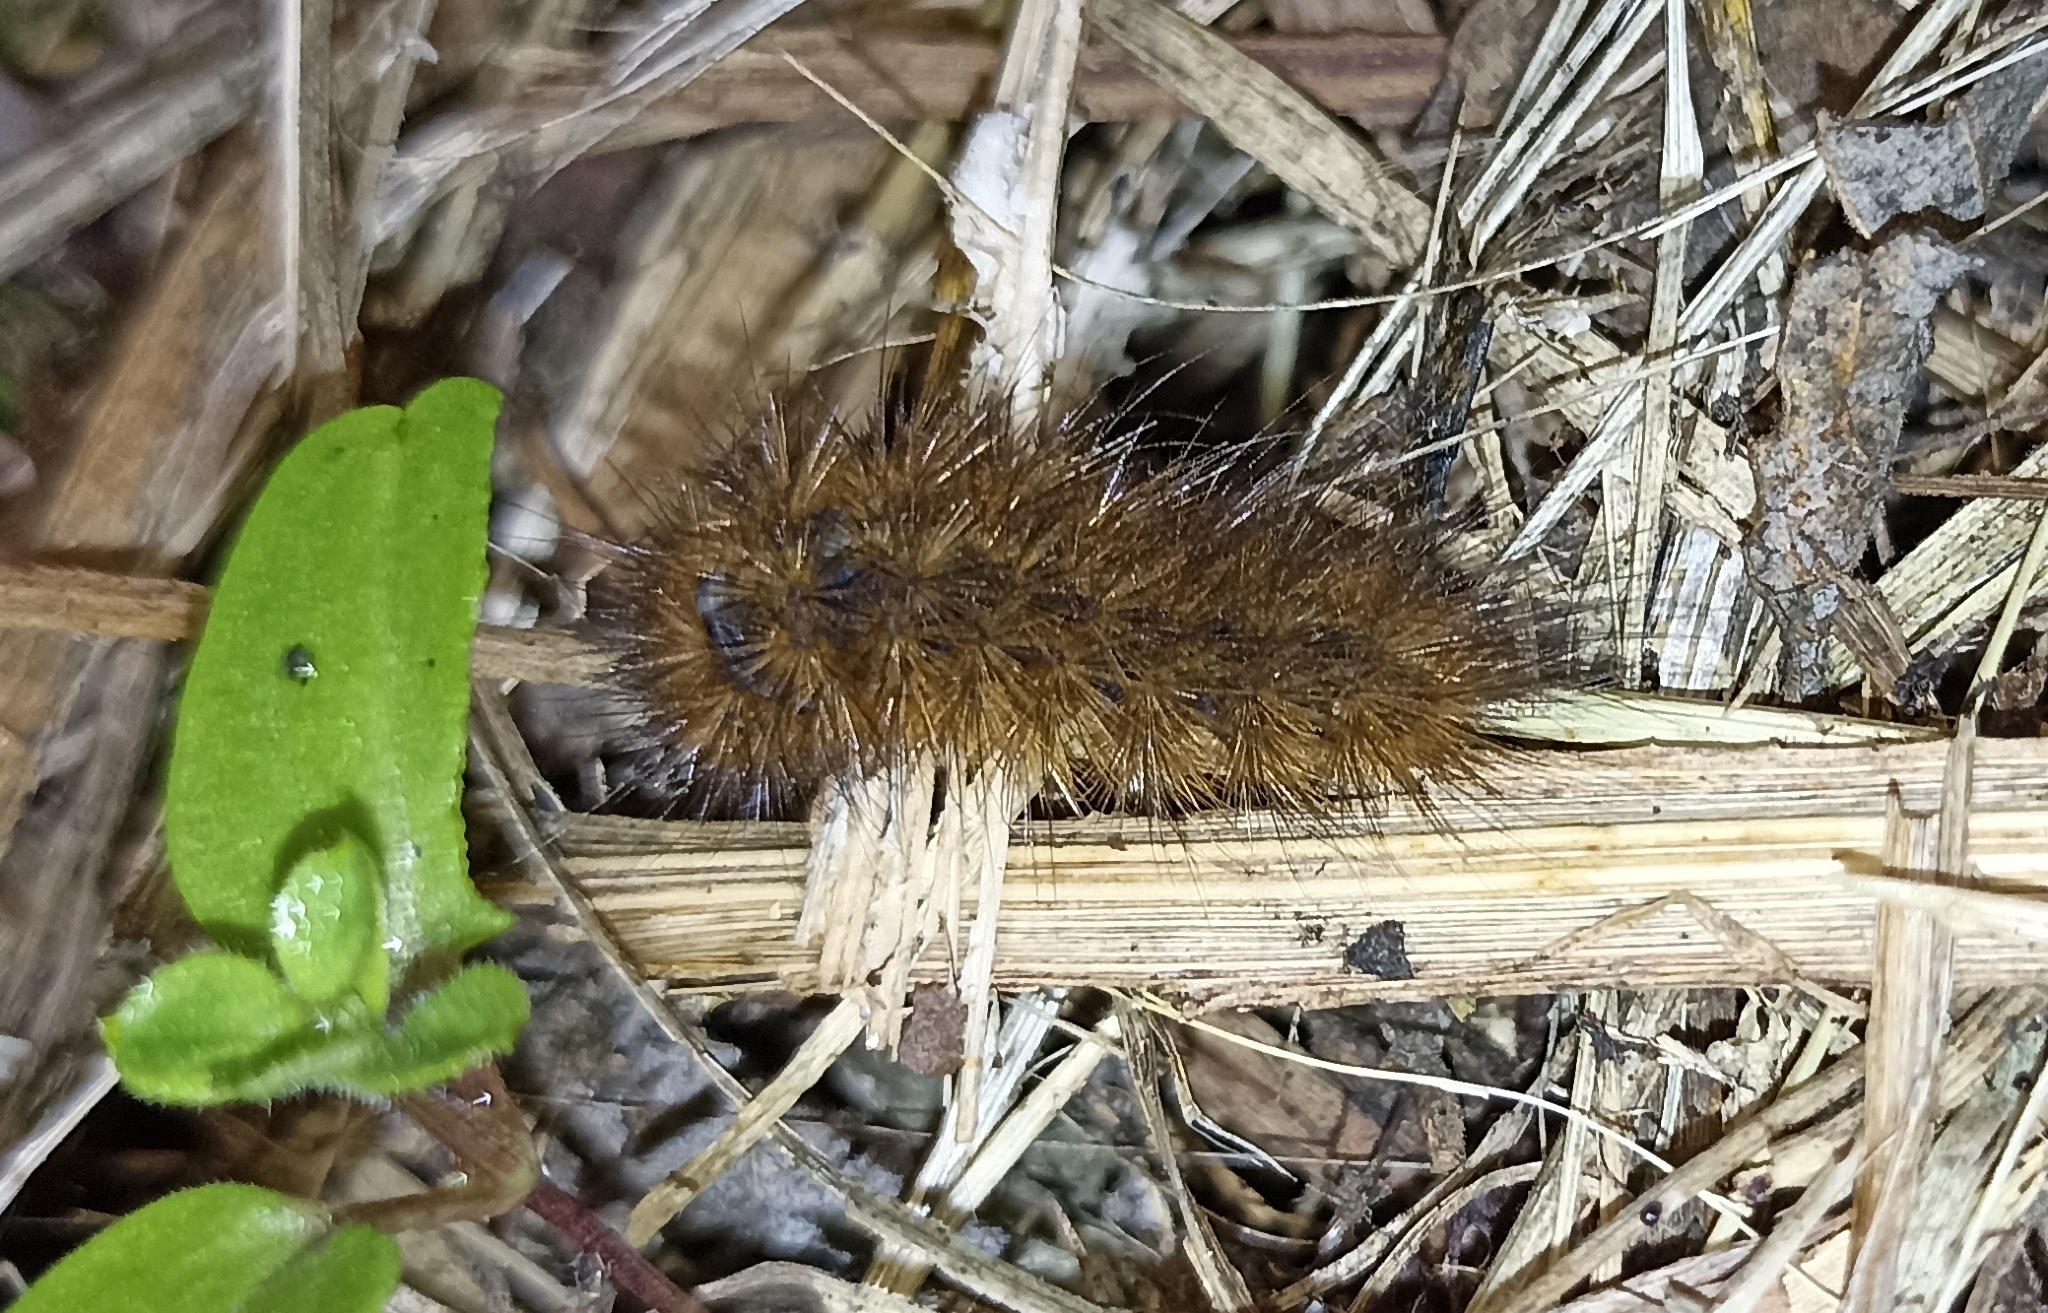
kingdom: Animalia
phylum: Arthropoda
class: Insecta
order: Lepidoptera
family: Erebidae
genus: Phragmatobia
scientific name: Phragmatobia fuliginosa
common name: Ruby tiger
